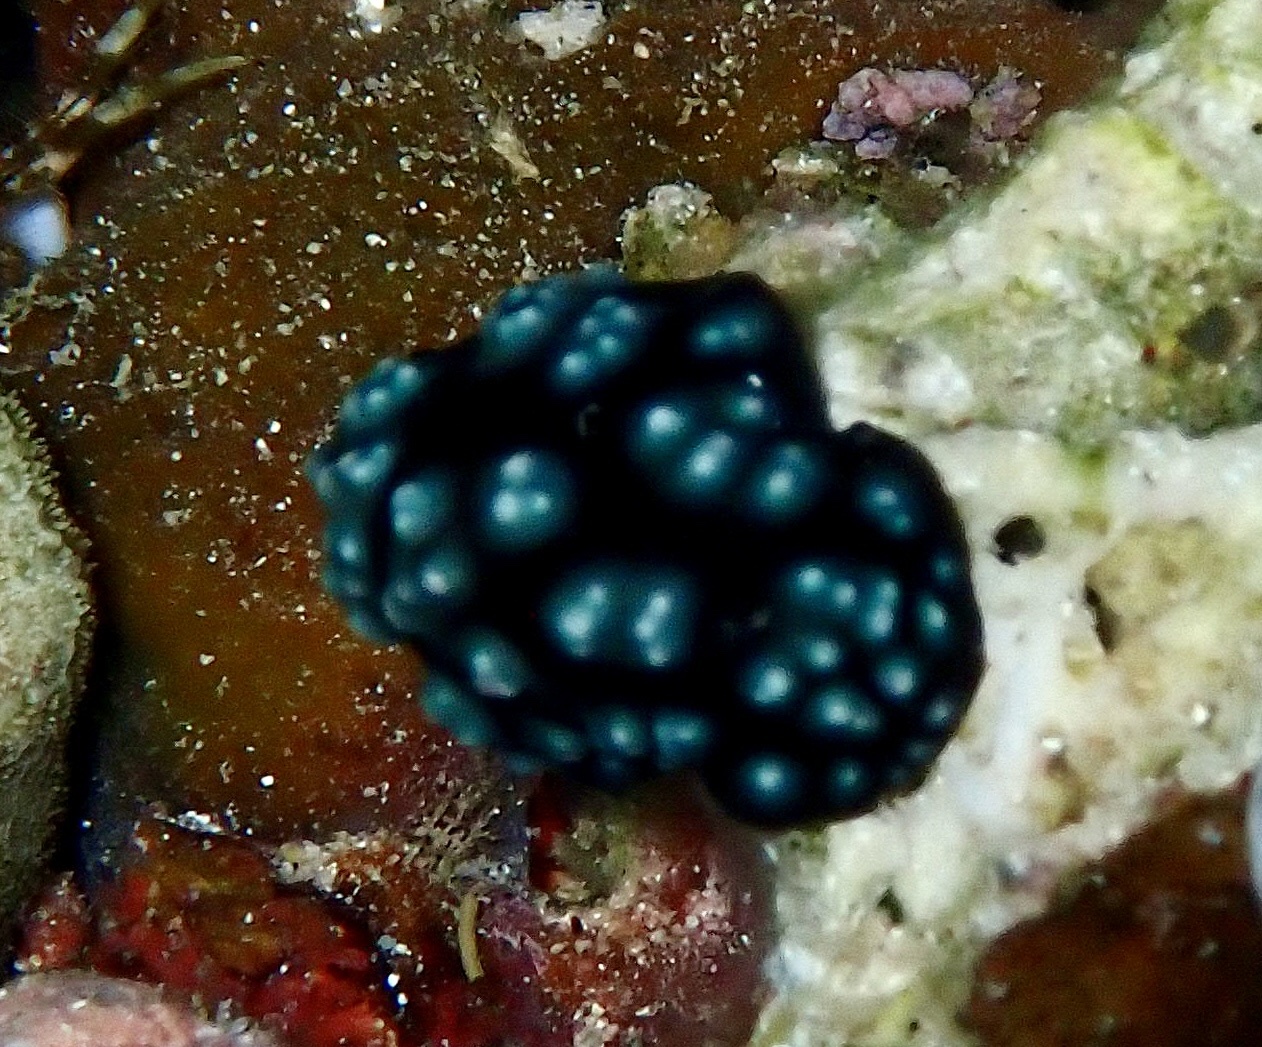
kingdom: Animalia
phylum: Mollusca
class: Gastropoda
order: Nudibranchia
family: Phyllidiidae
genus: Phyllidiella
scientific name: Phyllidiella pustulosa
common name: Pustular phyllidia
